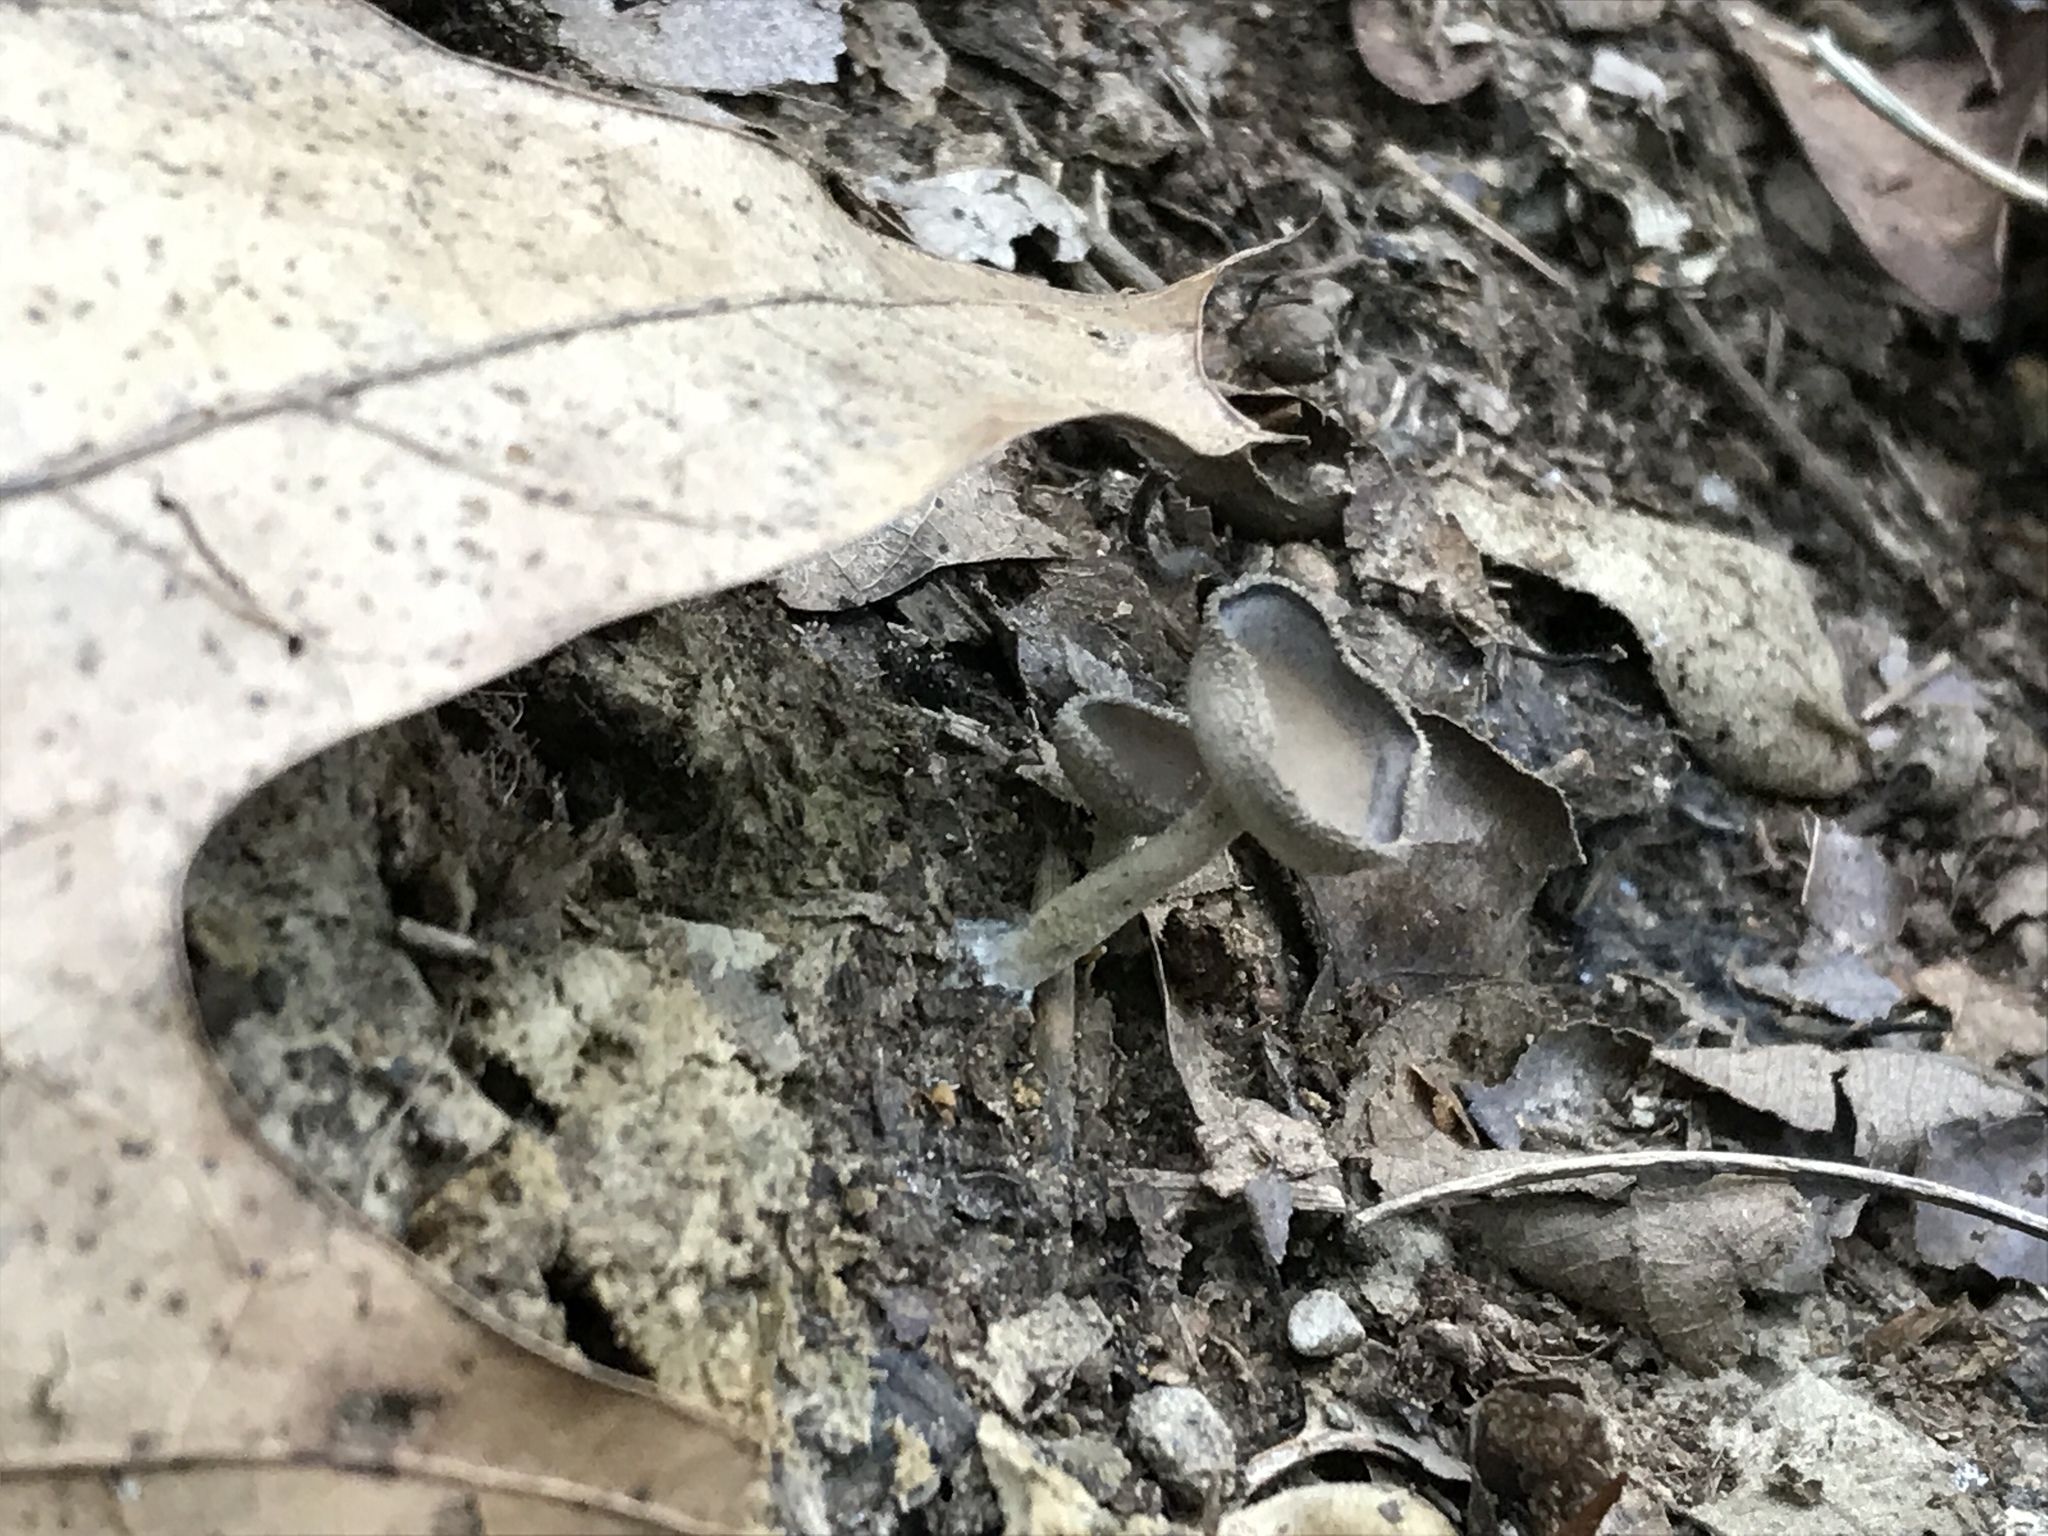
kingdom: Fungi
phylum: Ascomycota
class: Pezizomycetes
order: Pezizales
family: Helvellaceae
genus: Helvella
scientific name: Helvella macropus
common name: Felt saddle
